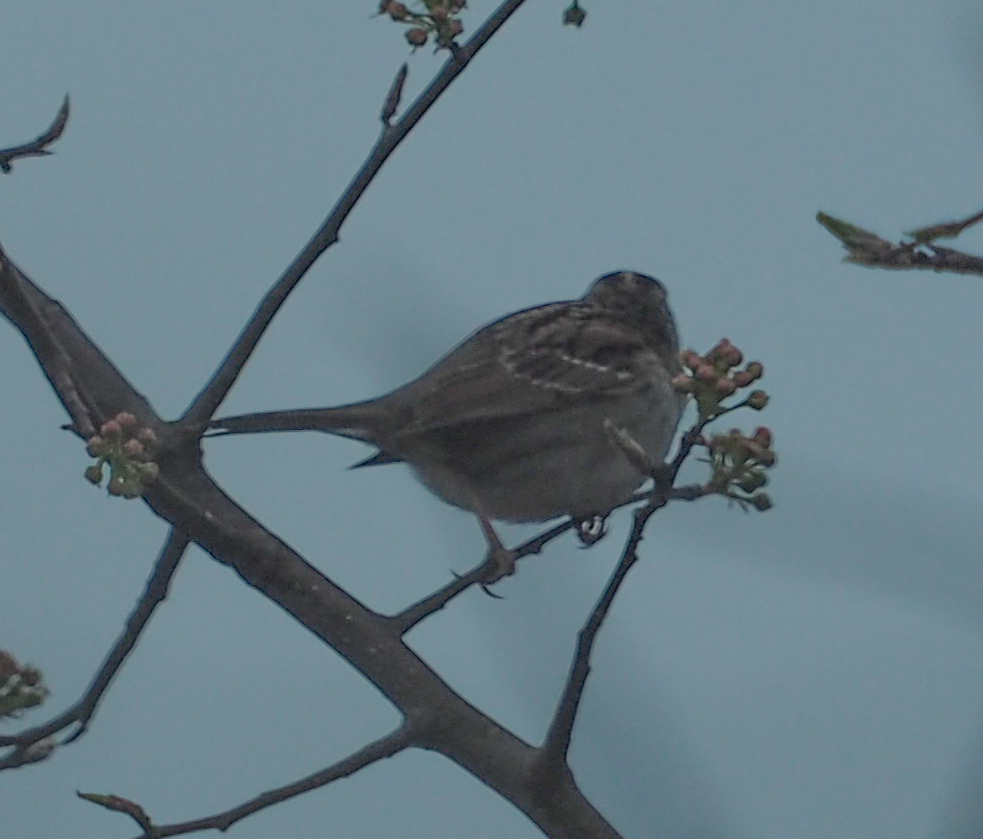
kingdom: Animalia
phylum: Chordata
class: Aves
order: Passeriformes
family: Passerellidae
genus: Zonotrichia
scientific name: Zonotrichia albicollis
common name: White-throated sparrow
